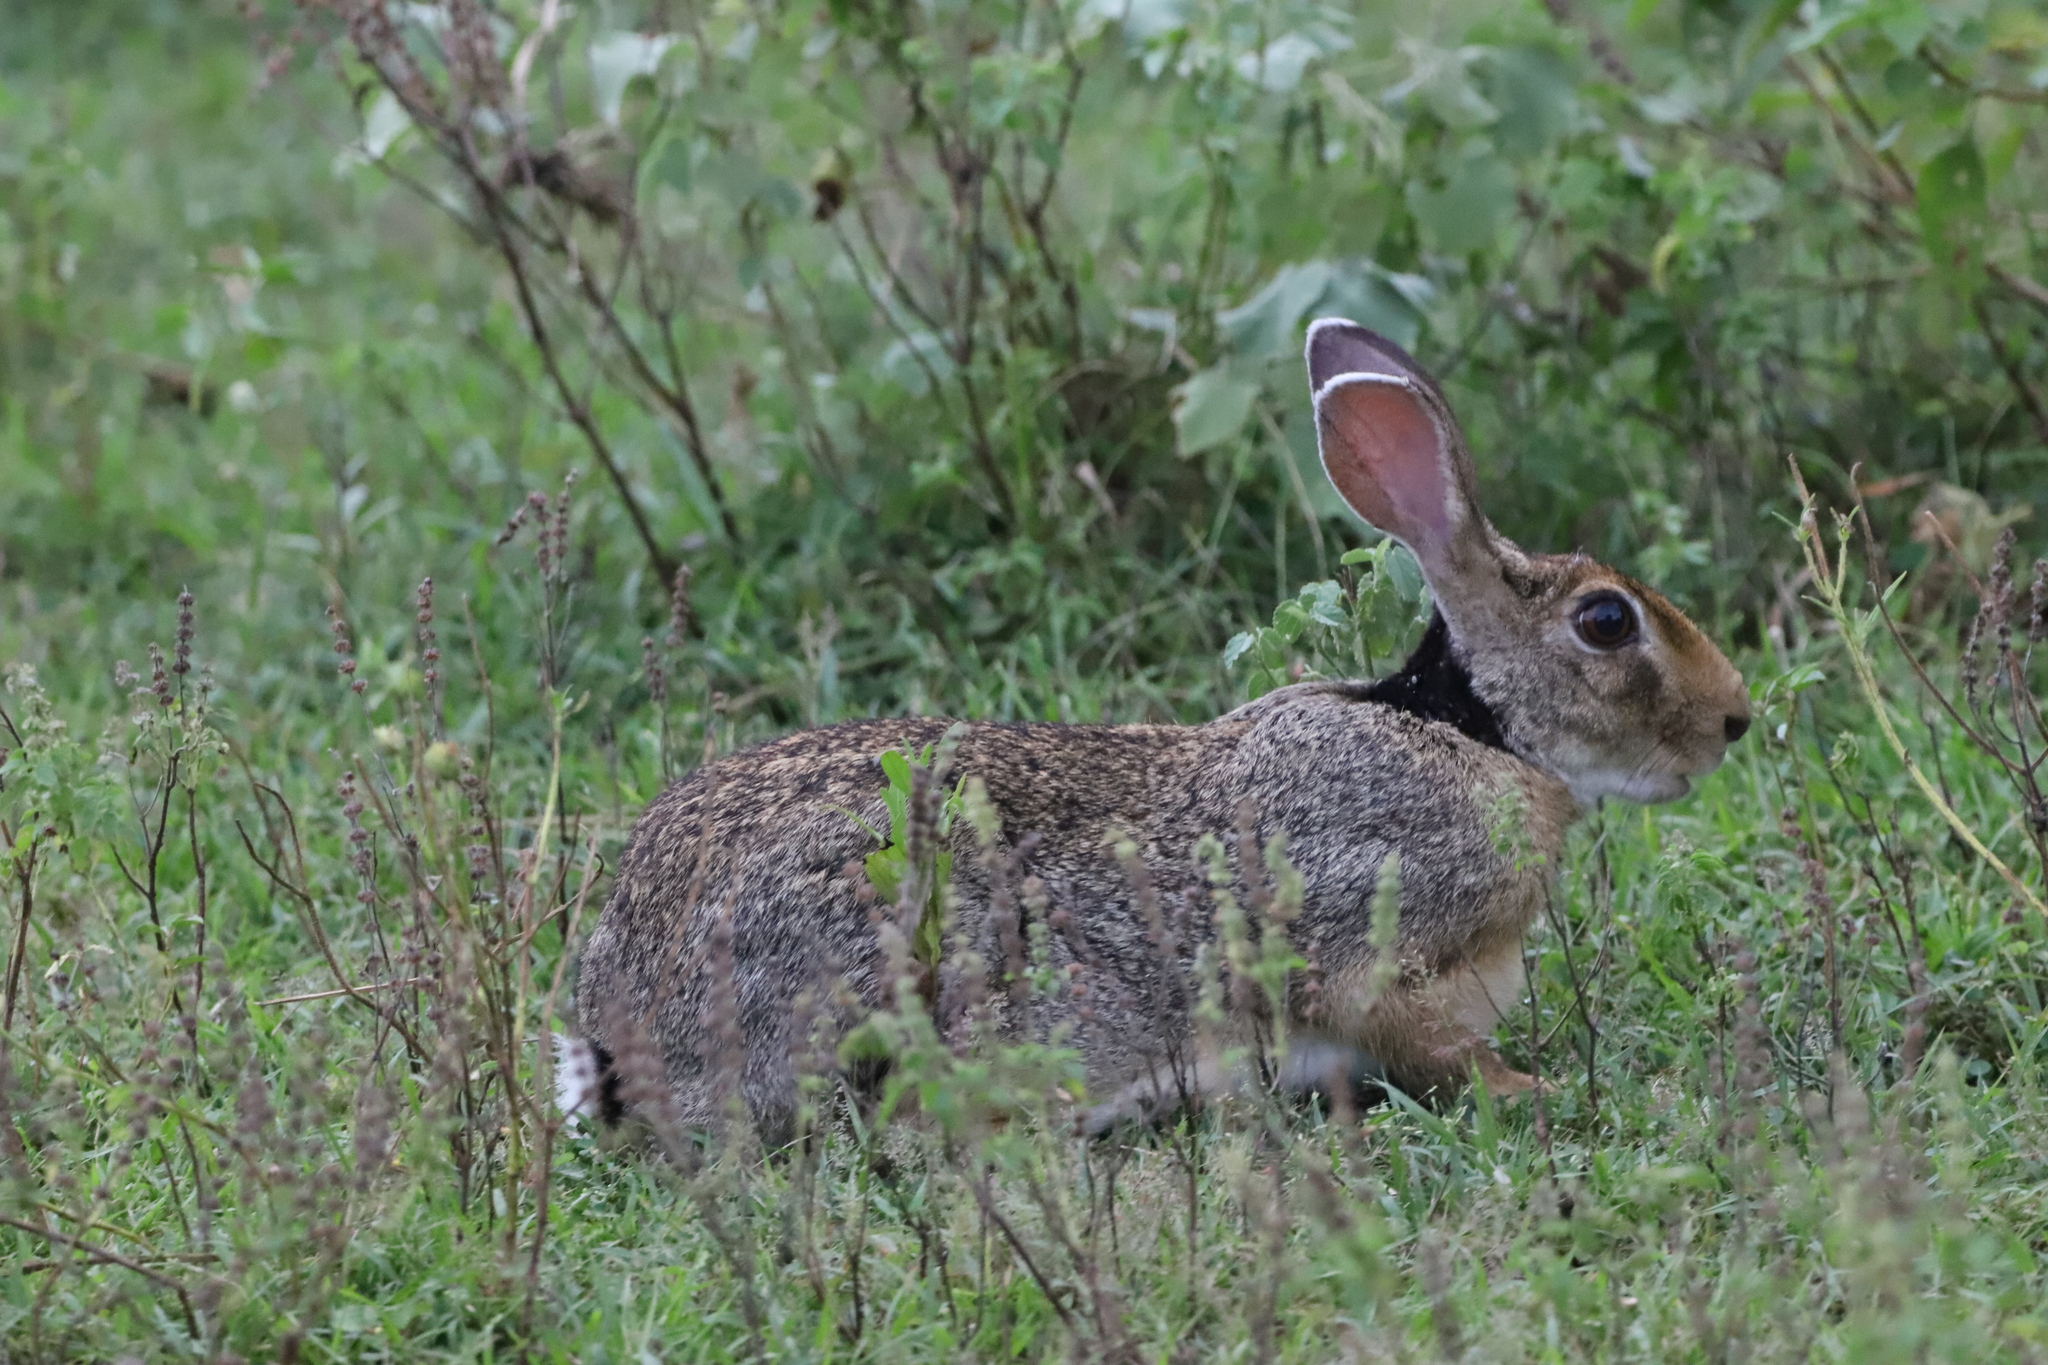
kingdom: Animalia
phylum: Chordata
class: Mammalia
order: Lagomorpha
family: Leporidae
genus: Lepus
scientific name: Lepus nigricollis
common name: Indian hare
